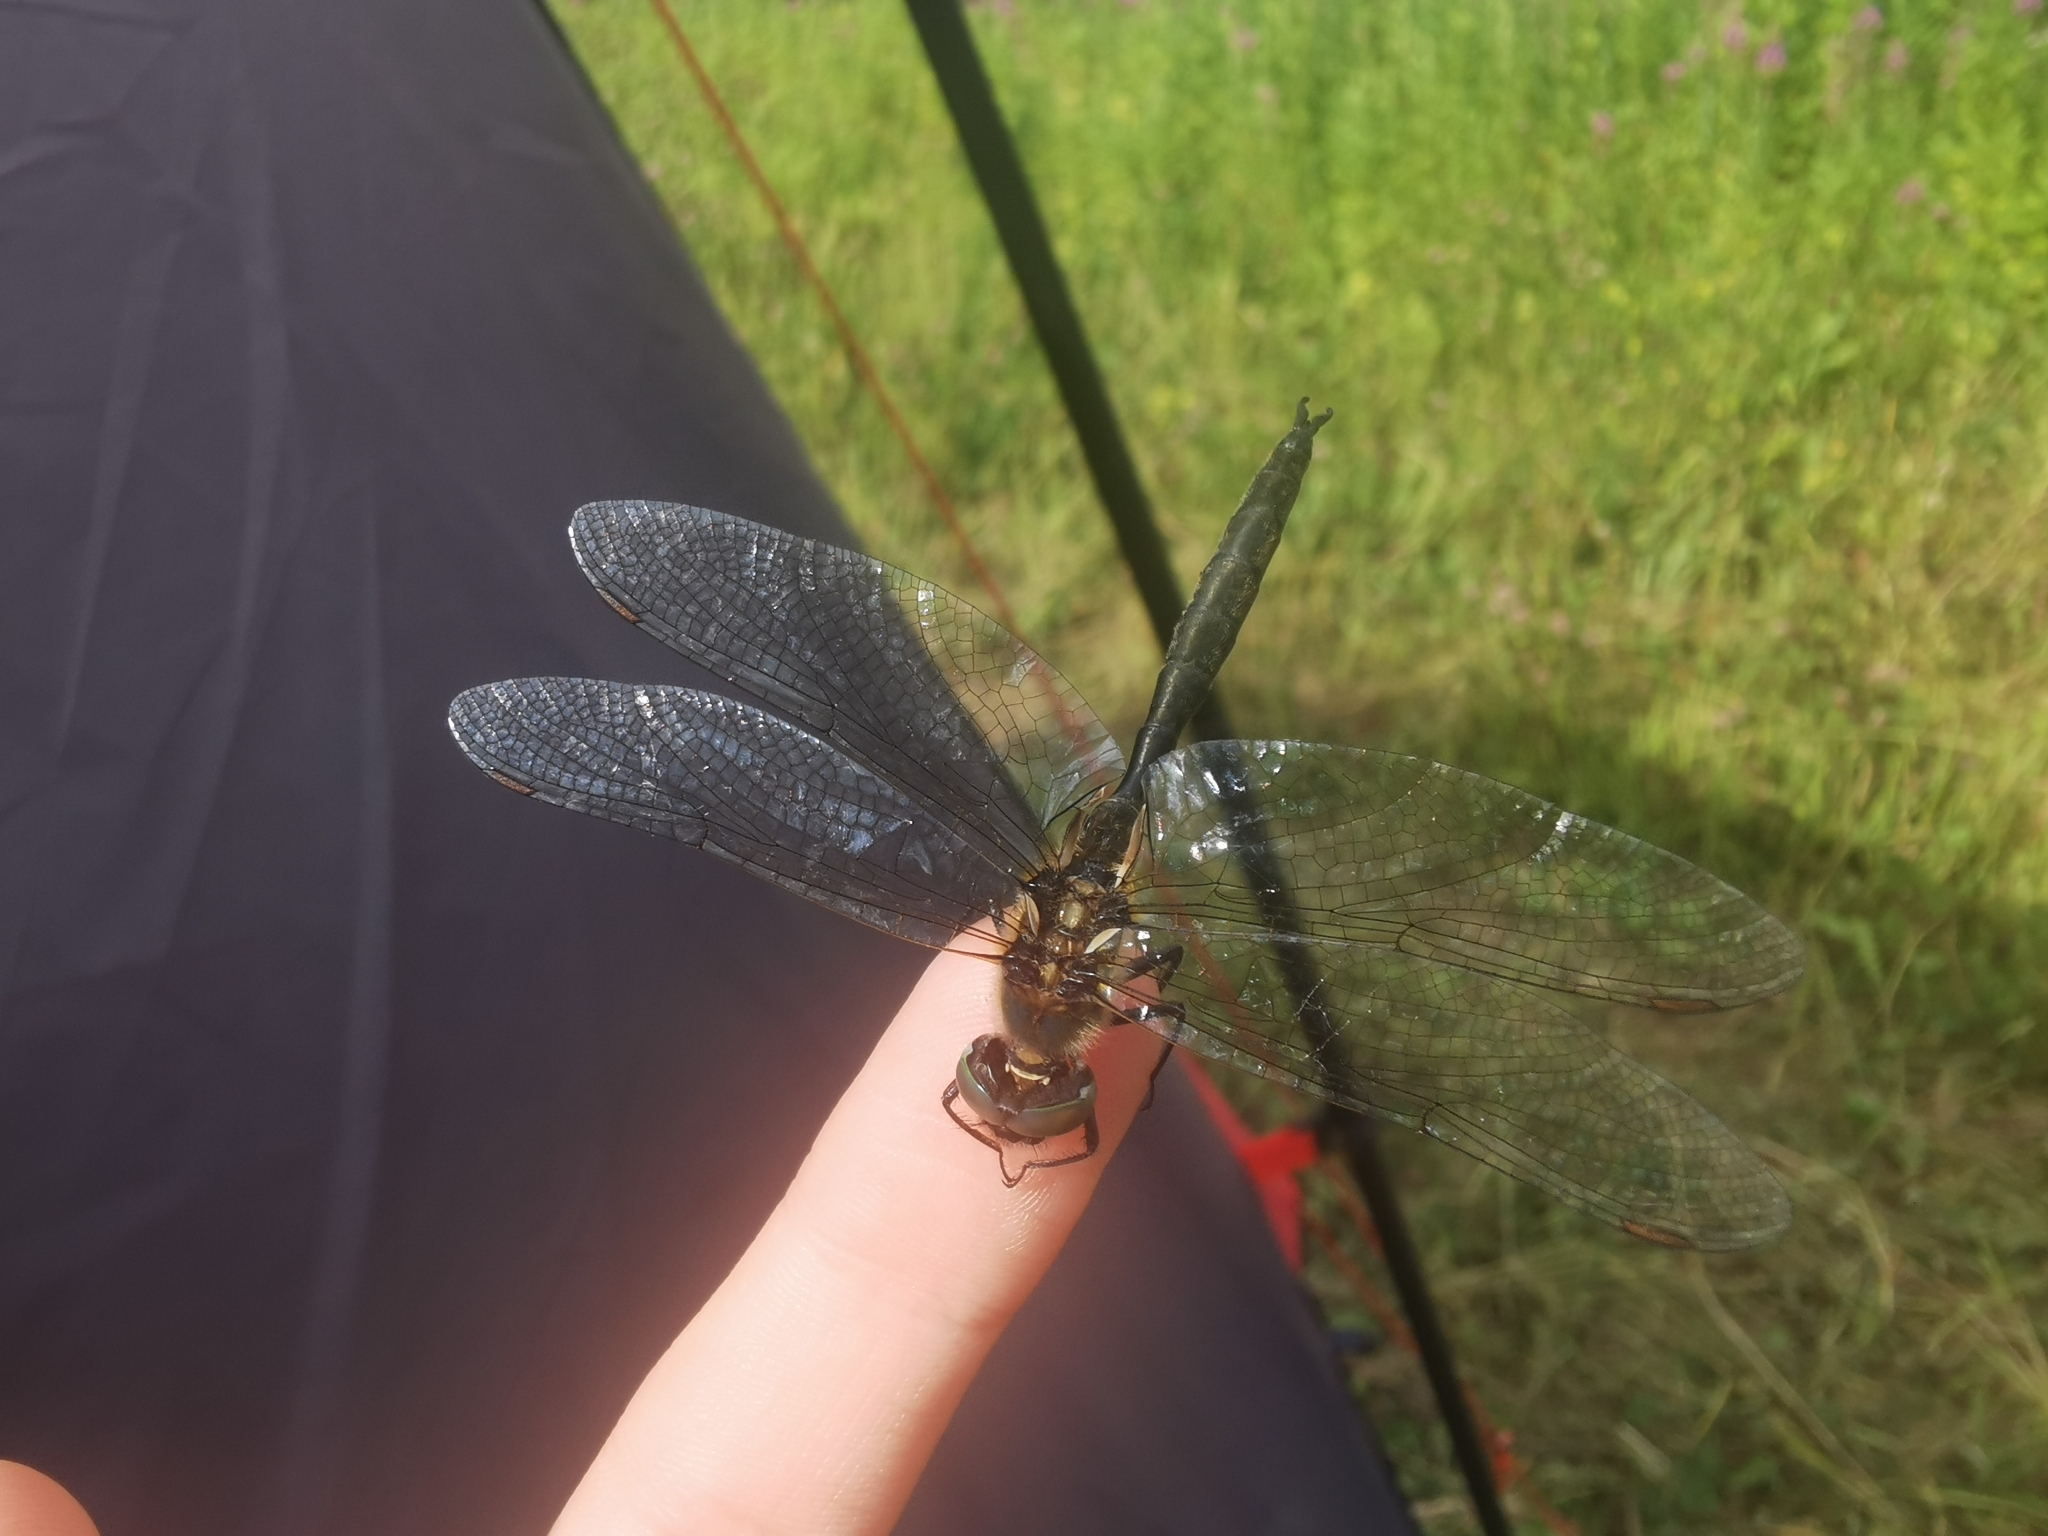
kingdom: Animalia
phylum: Arthropoda
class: Insecta
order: Odonata
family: Corduliidae
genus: Somatochlora
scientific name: Somatochlora arctica
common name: Northern emerald
